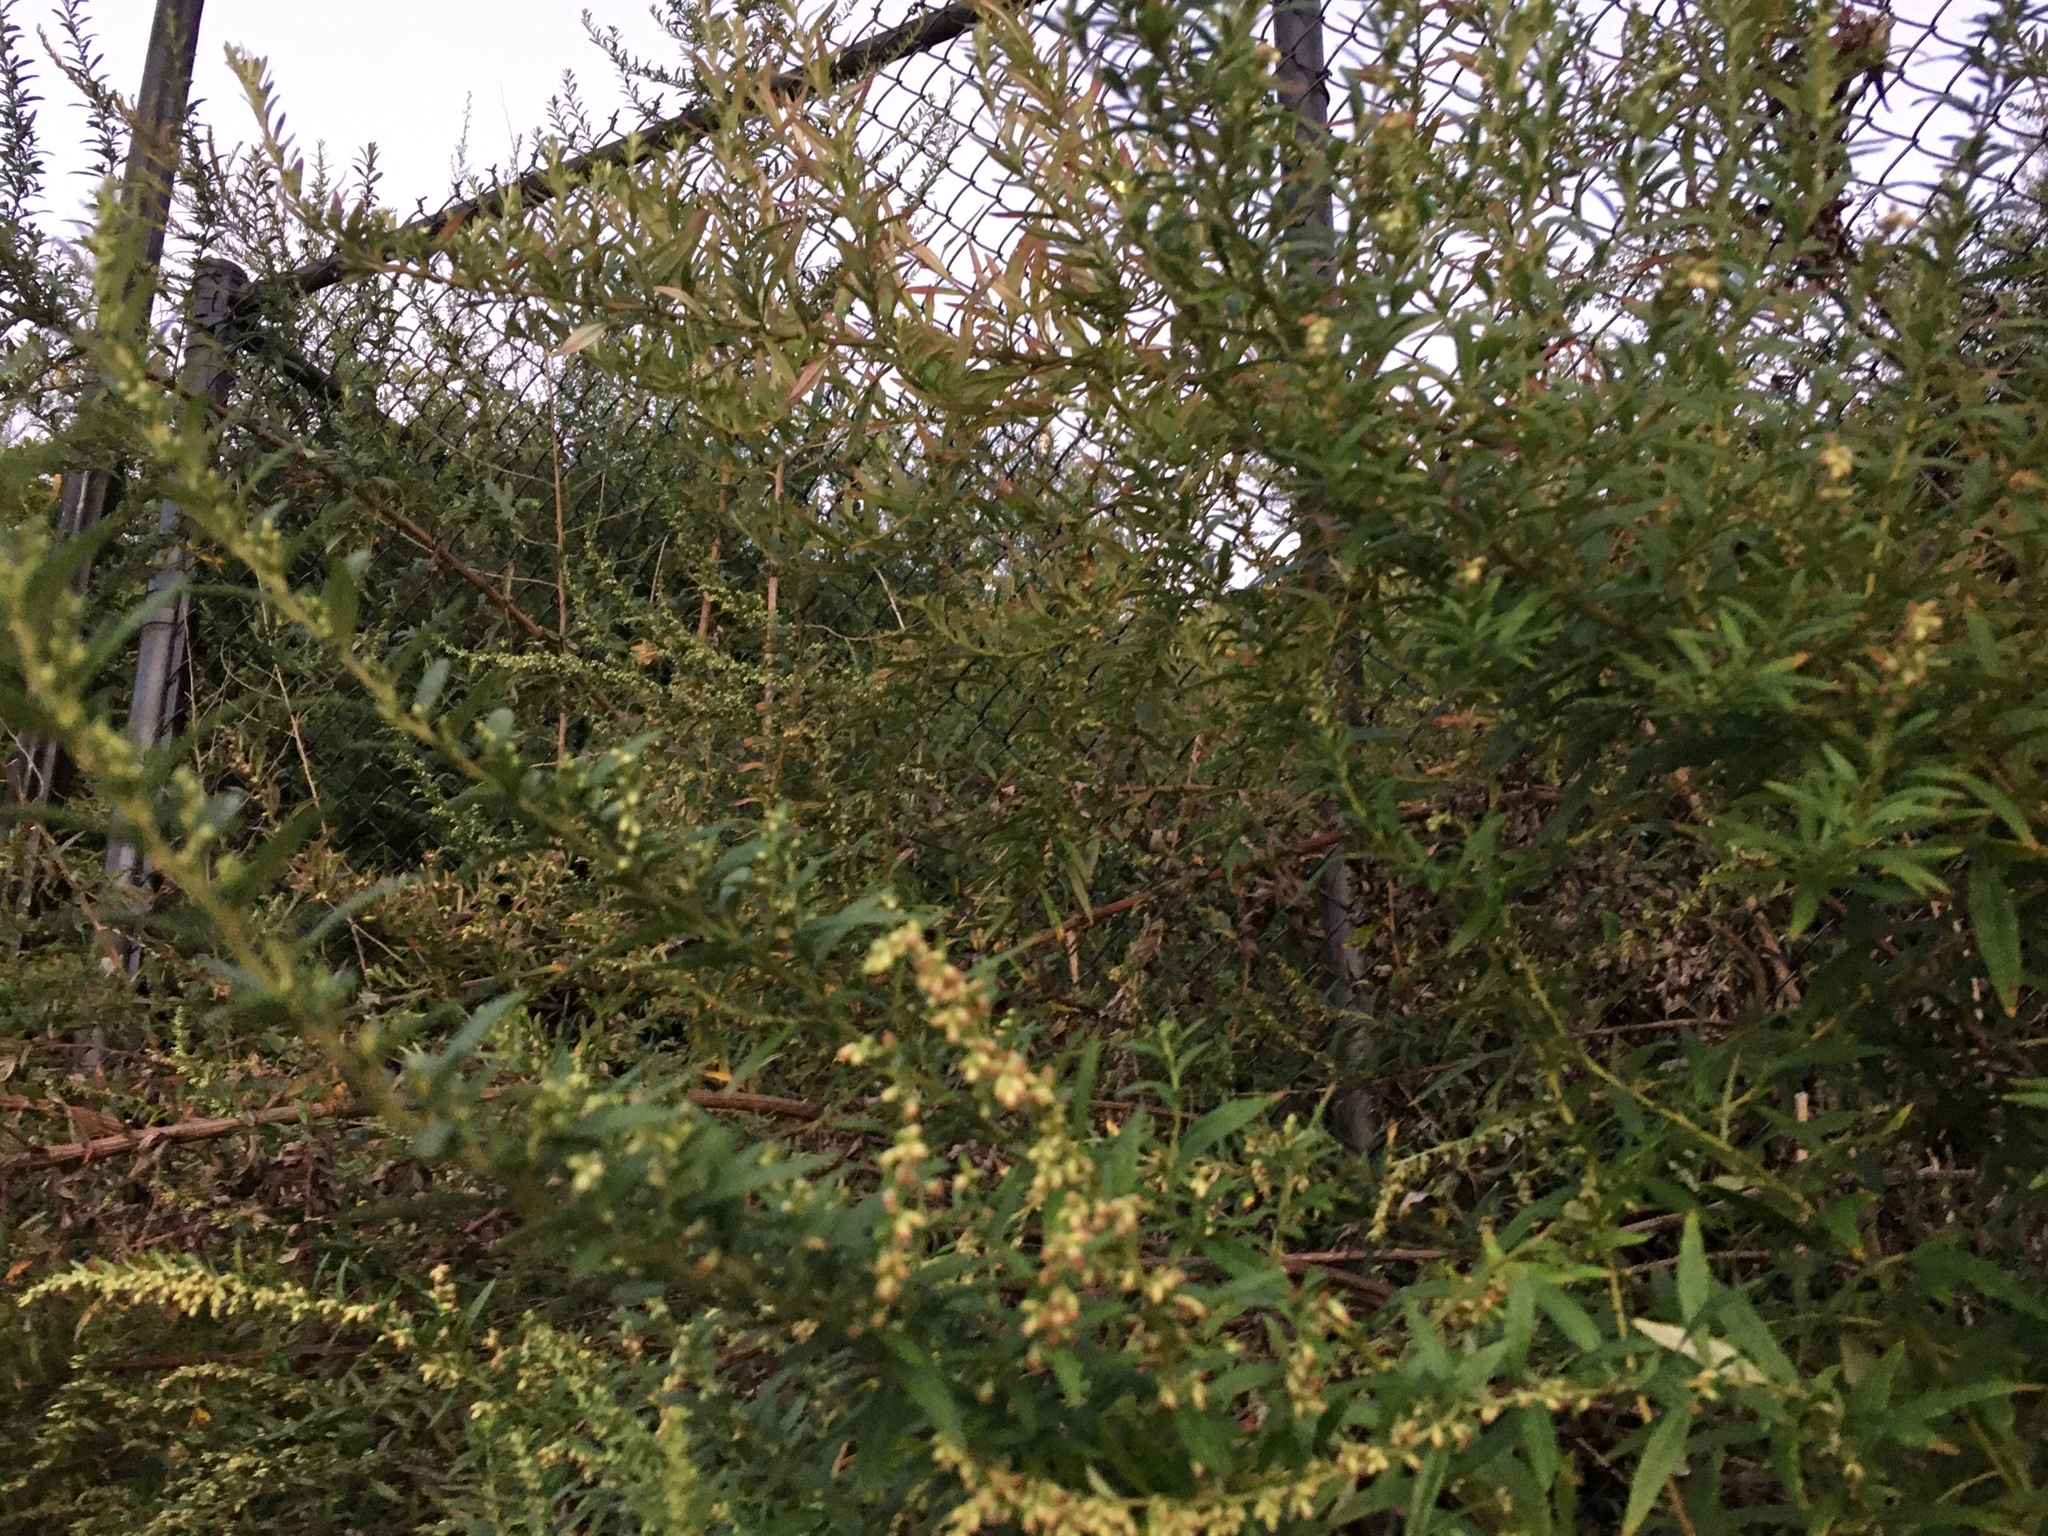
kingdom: Plantae
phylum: Tracheophyta
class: Magnoliopsida
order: Asterales
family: Asteraceae
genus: Artemisia
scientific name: Artemisia vulgaris
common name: Mugwort
